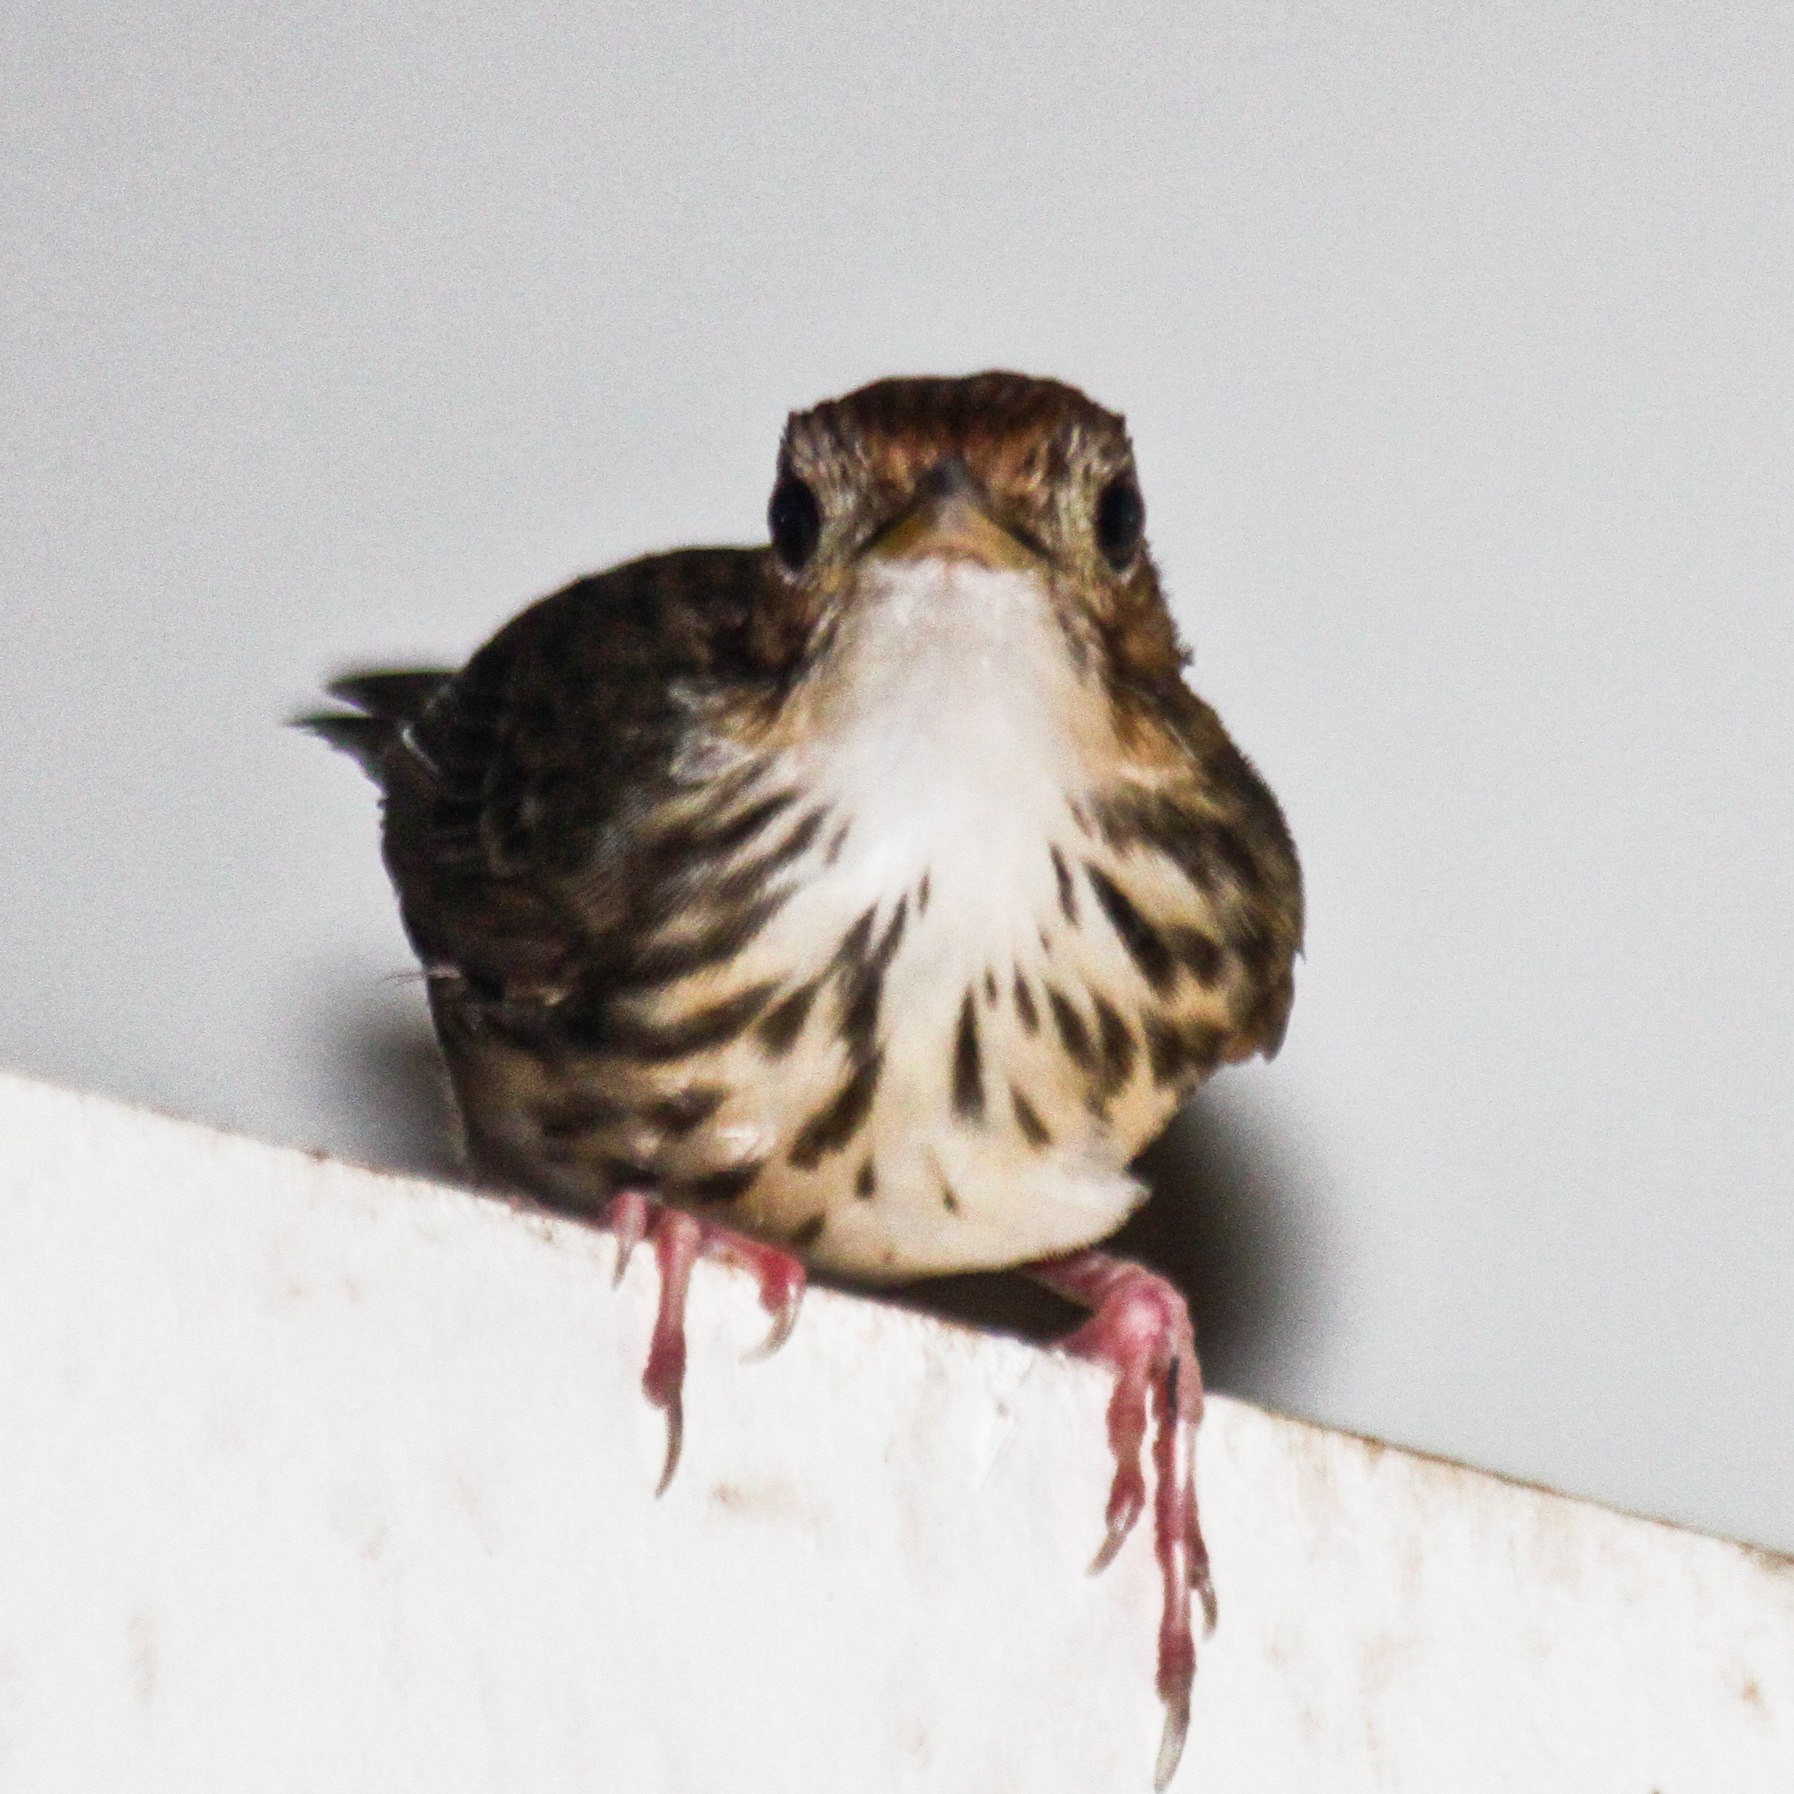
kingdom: Animalia
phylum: Chordata
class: Aves
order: Passeriformes
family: Pellorneidae
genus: Pellorneum
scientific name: Pellorneum ruficeps
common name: Puff-throated babbler
